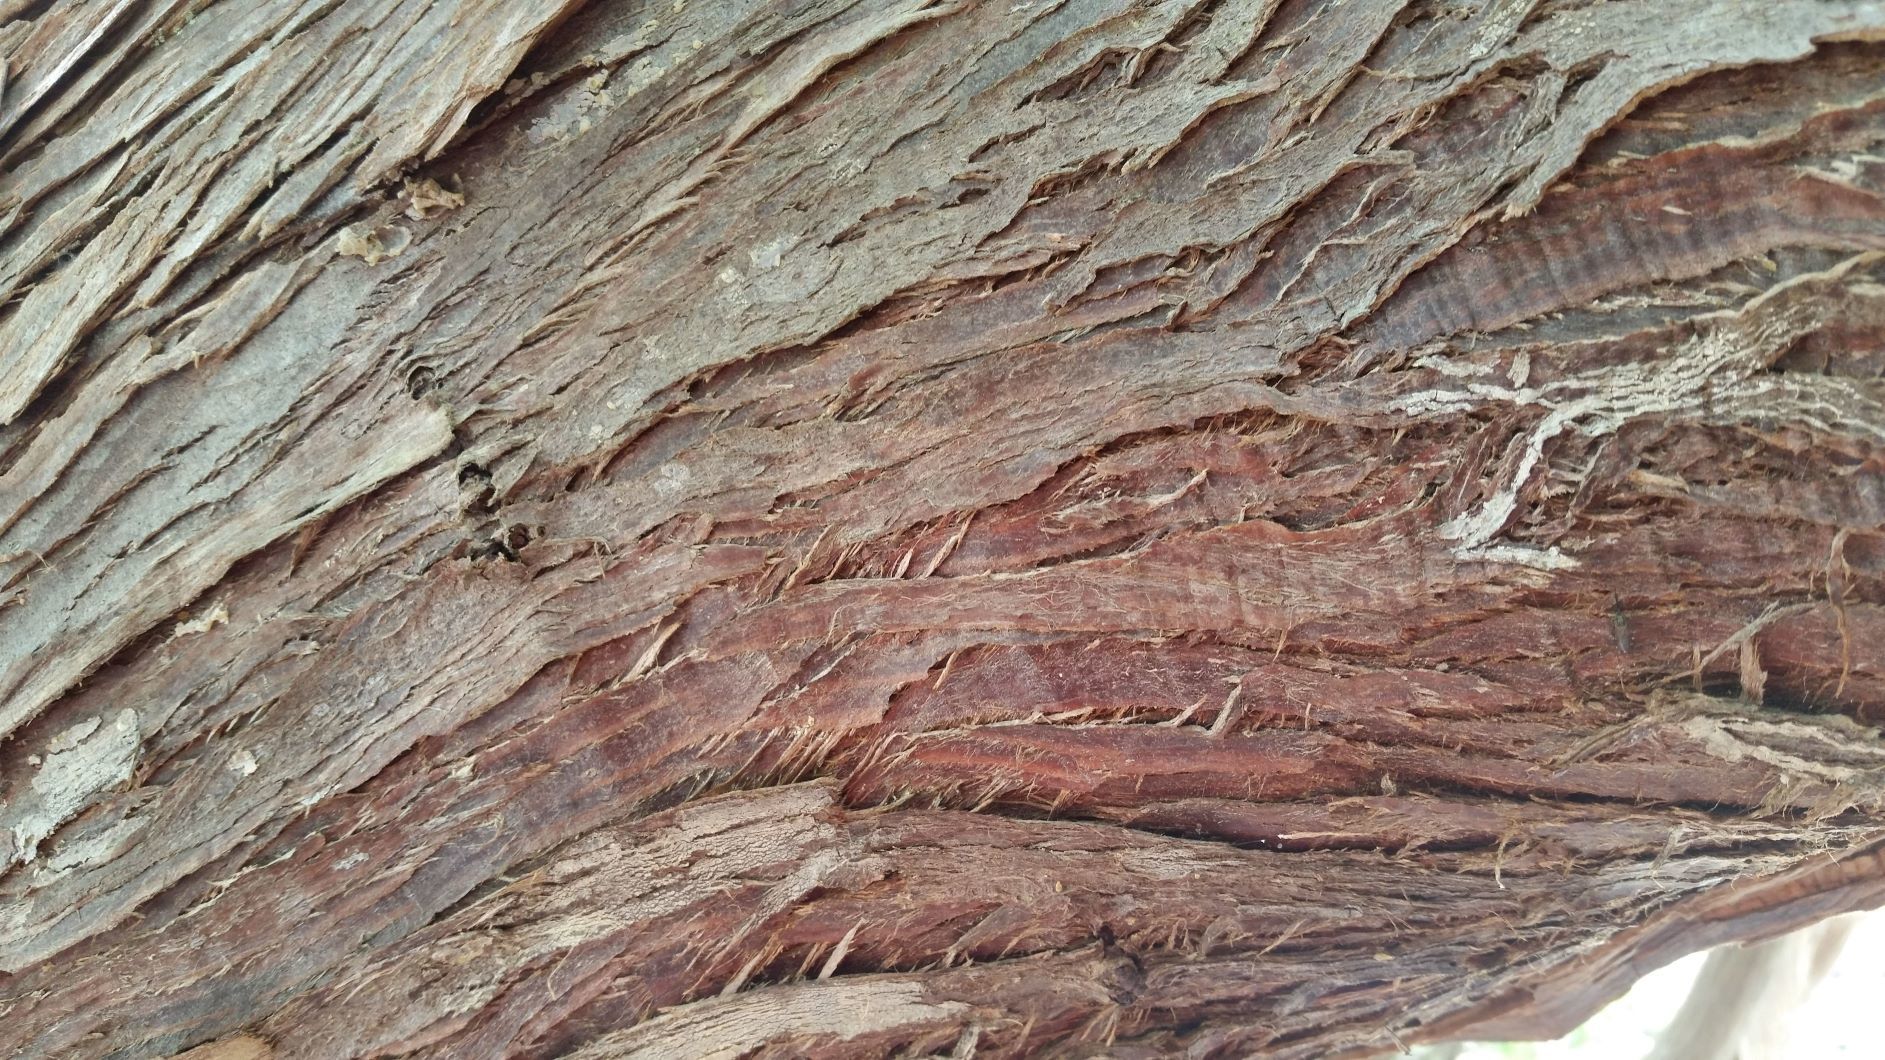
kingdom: Plantae
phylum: Tracheophyta
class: Pinopsida
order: Pinales
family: Cupressaceae
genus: Thuja
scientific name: Thuja plicata
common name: Western red-cedar
